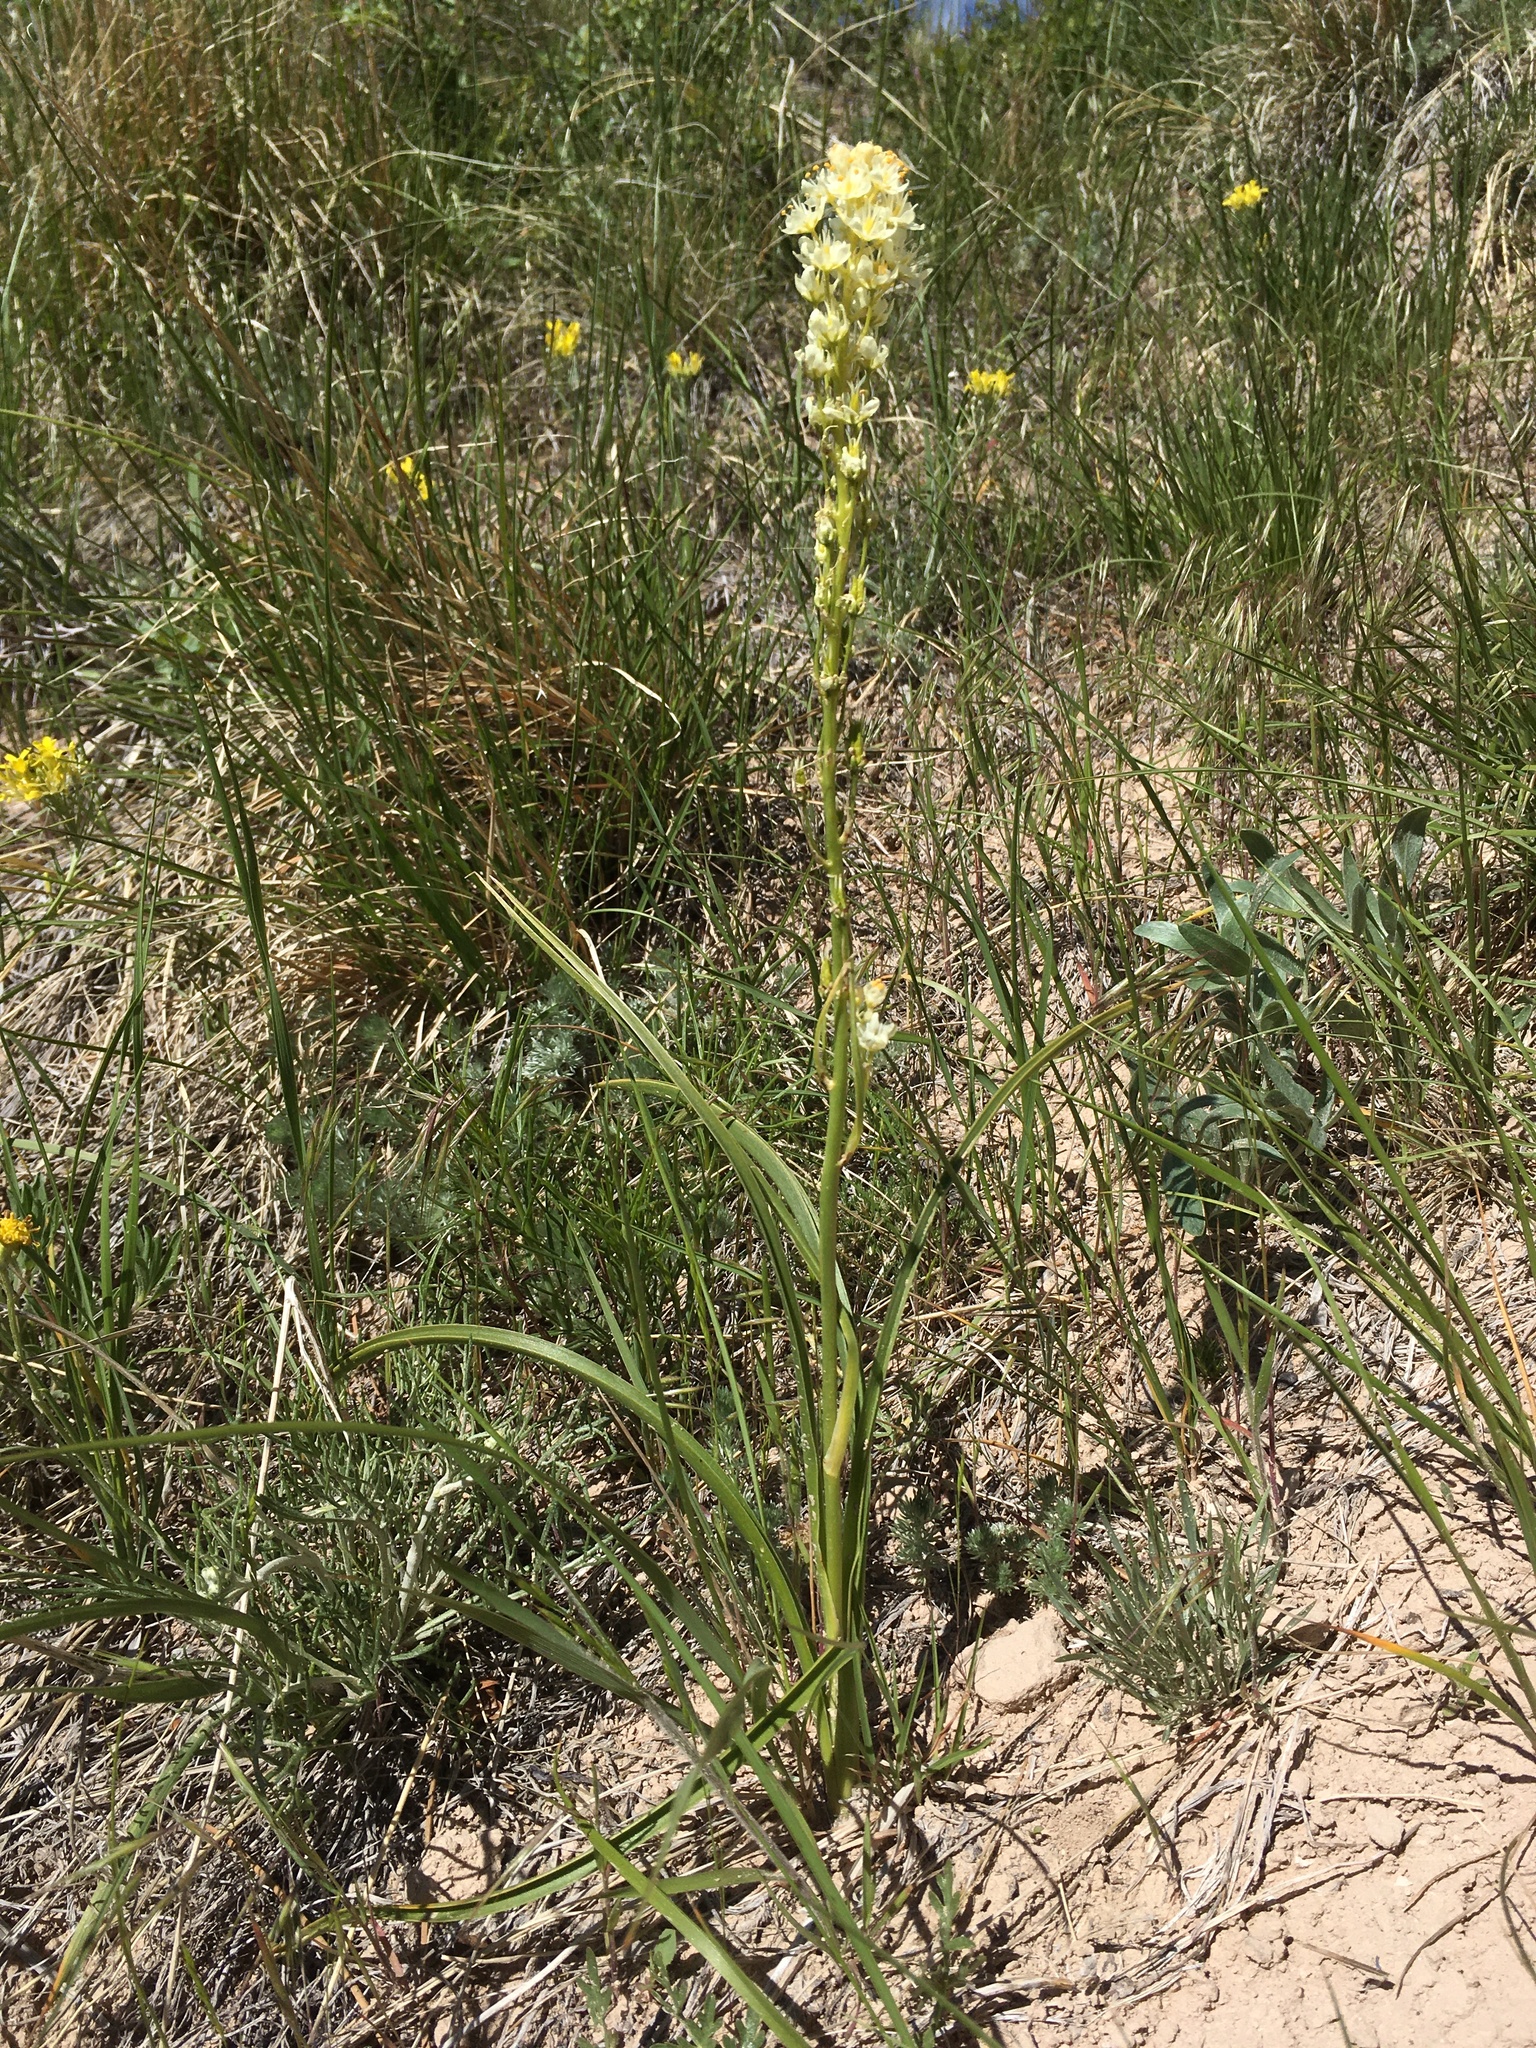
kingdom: Plantae
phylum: Tracheophyta
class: Liliopsida
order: Liliales
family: Melanthiaceae
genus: Toxicoscordion
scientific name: Toxicoscordion venenosum
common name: Meadow death camas
